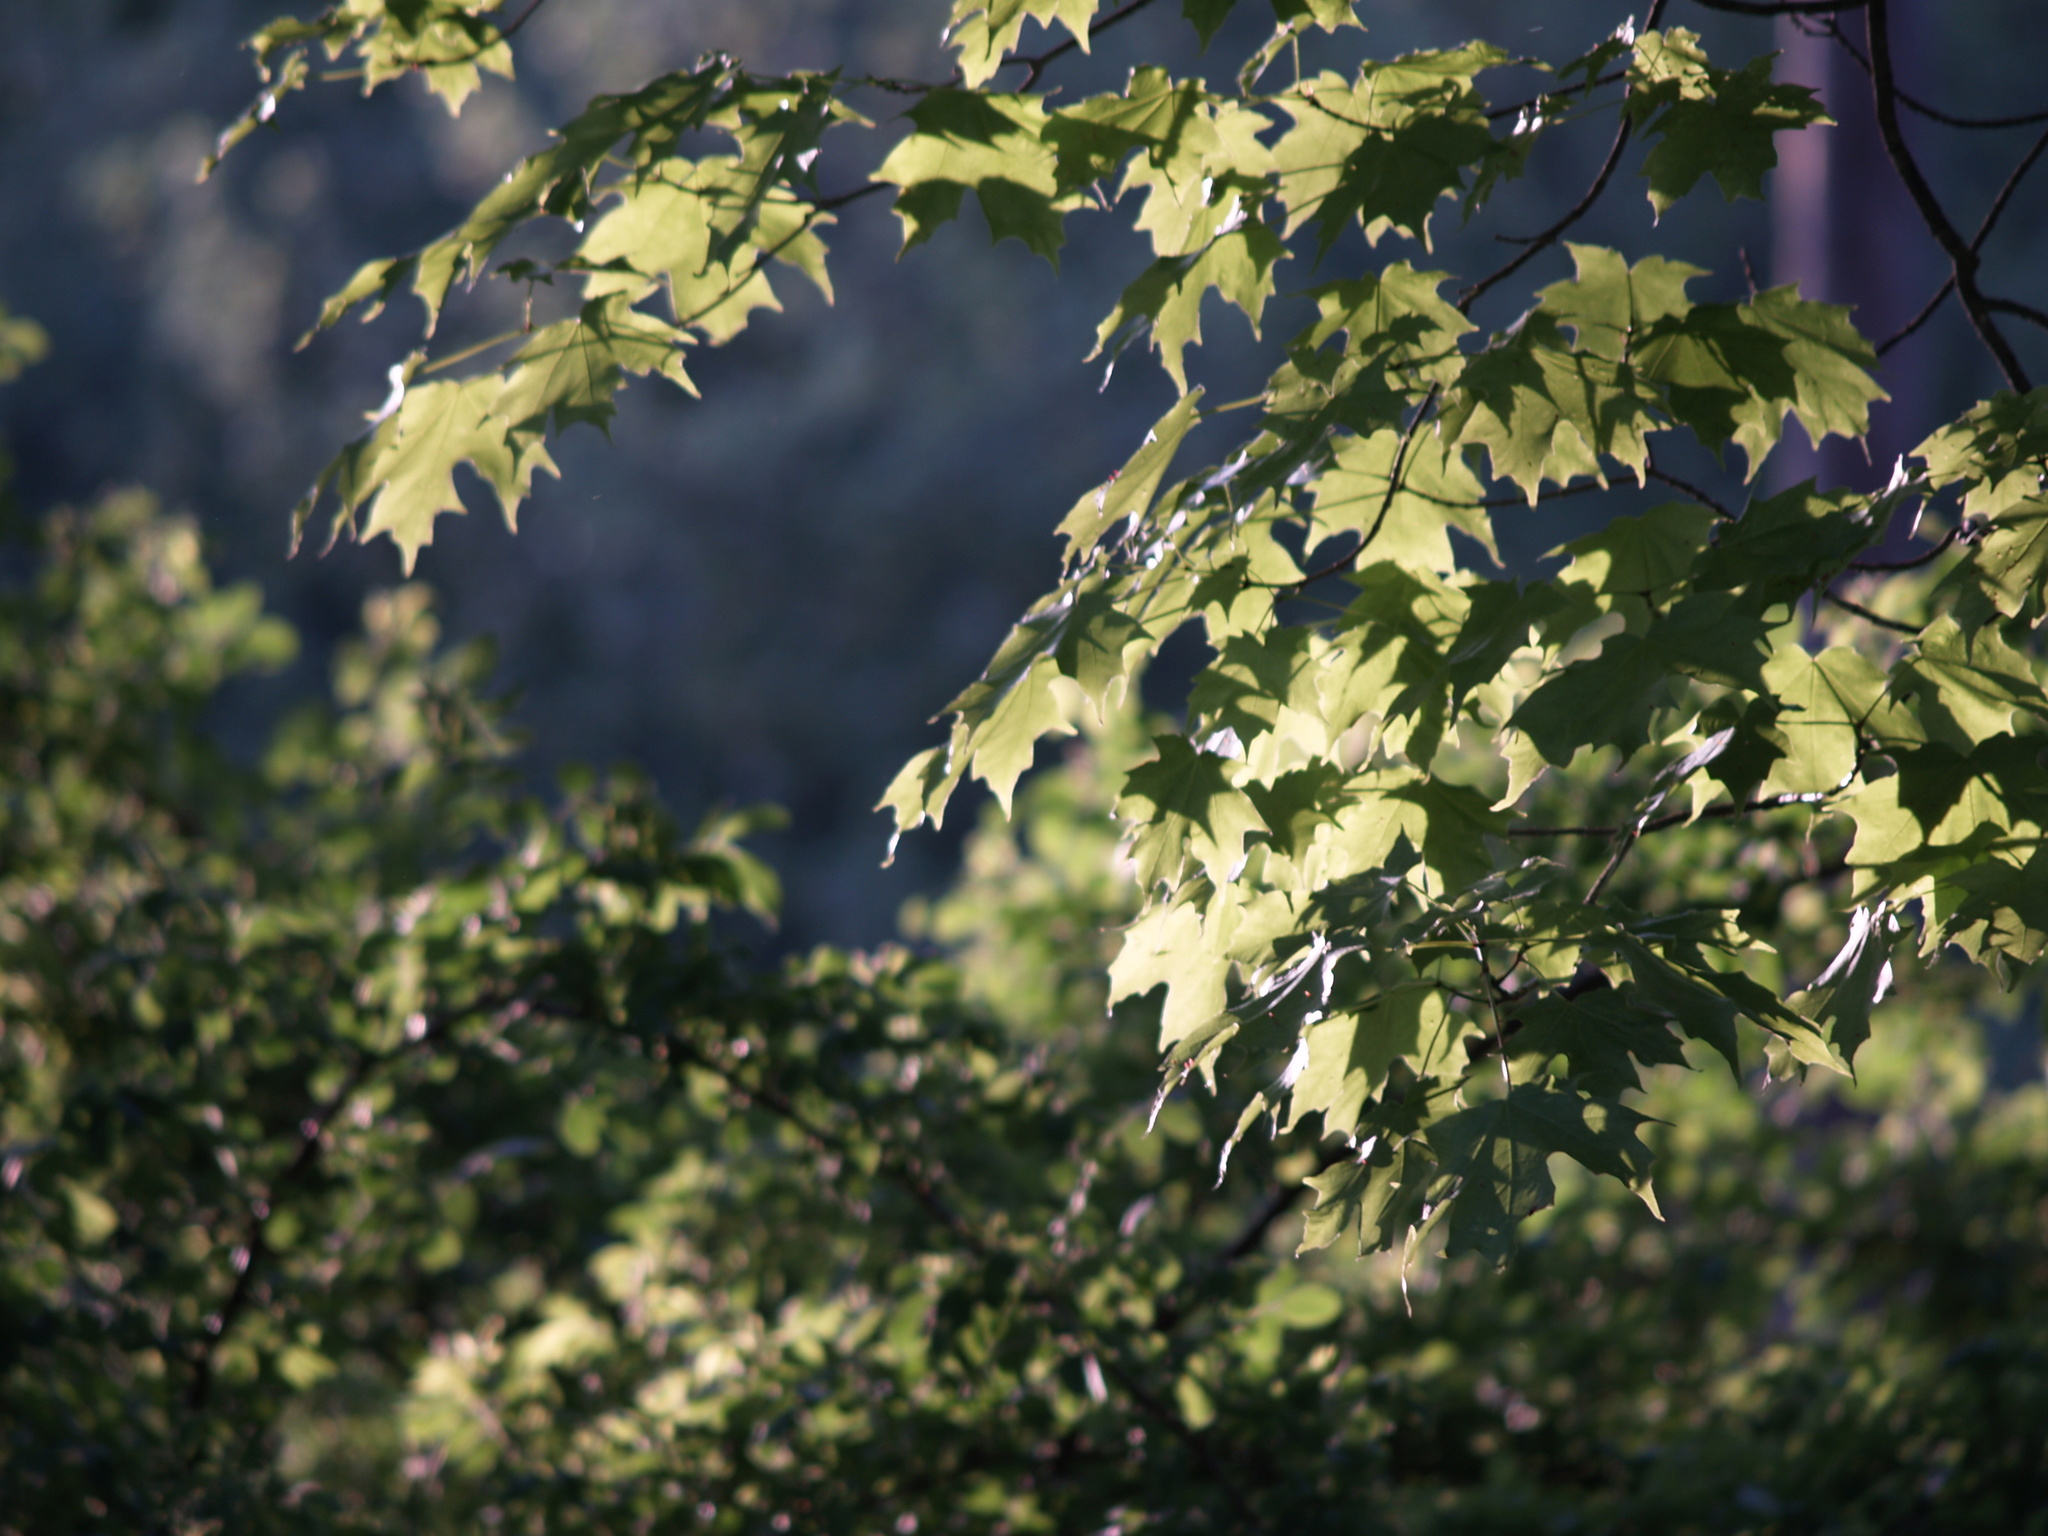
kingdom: Plantae
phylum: Tracheophyta
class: Magnoliopsida
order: Sapindales
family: Sapindaceae
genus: Acer
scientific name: Acer saccharum
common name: Sugar maple
